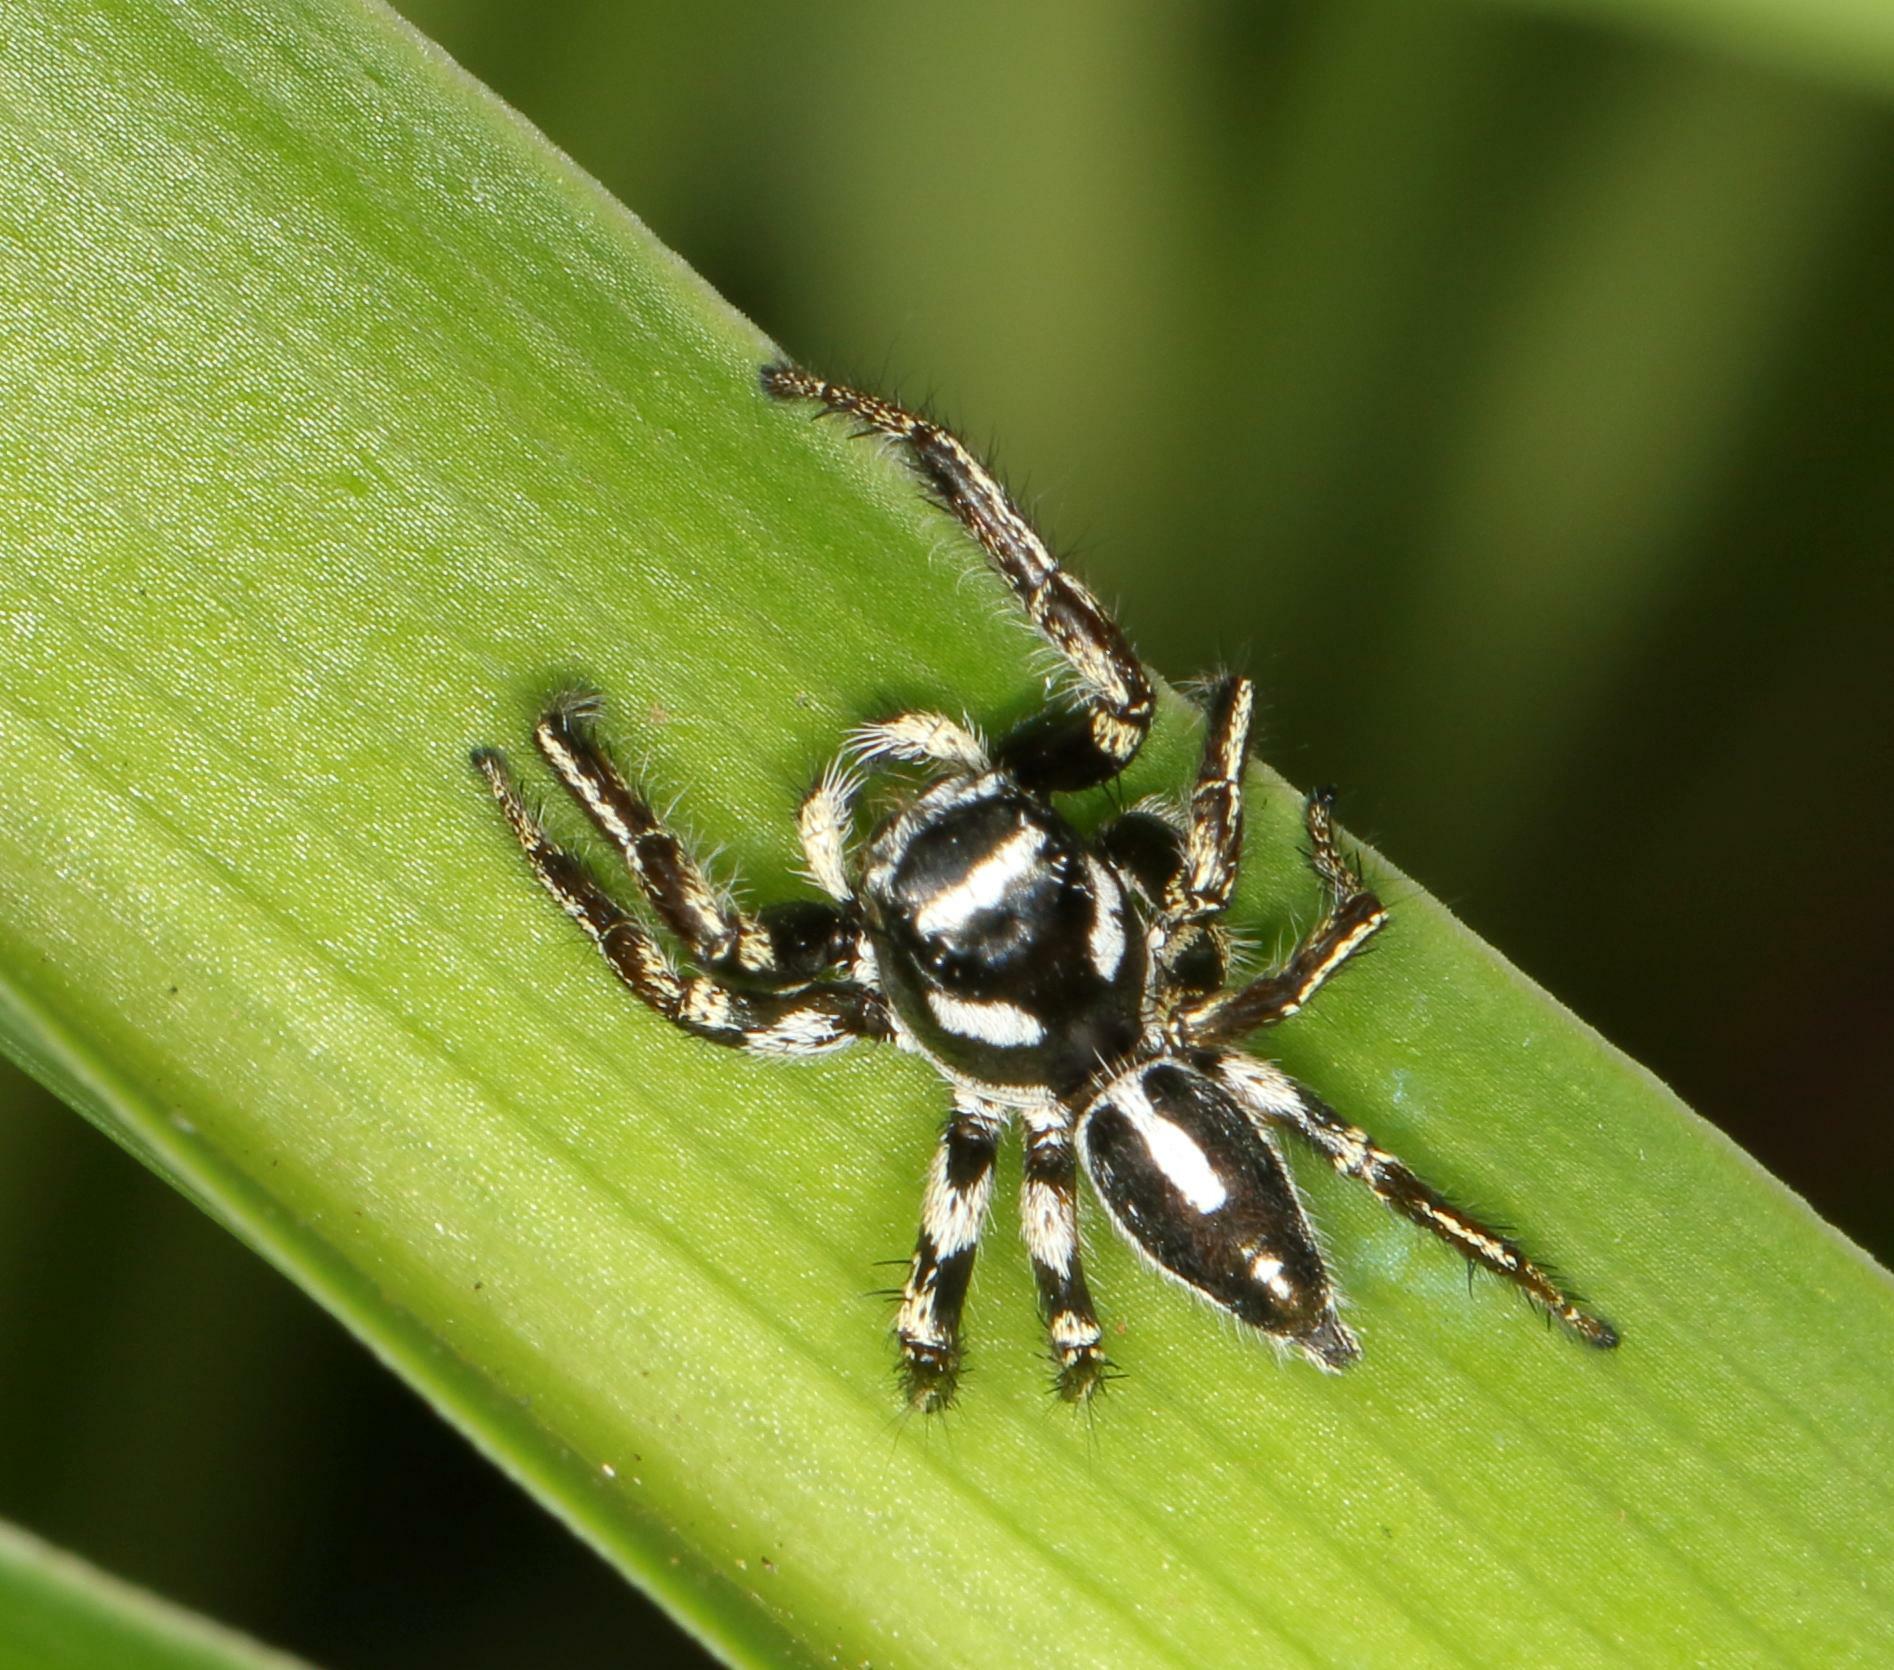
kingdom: Animalia
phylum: Arthropoda
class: Arachnida
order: Araneae
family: Salticidae
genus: Hyllus
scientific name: Hyllus argyrotoxus
